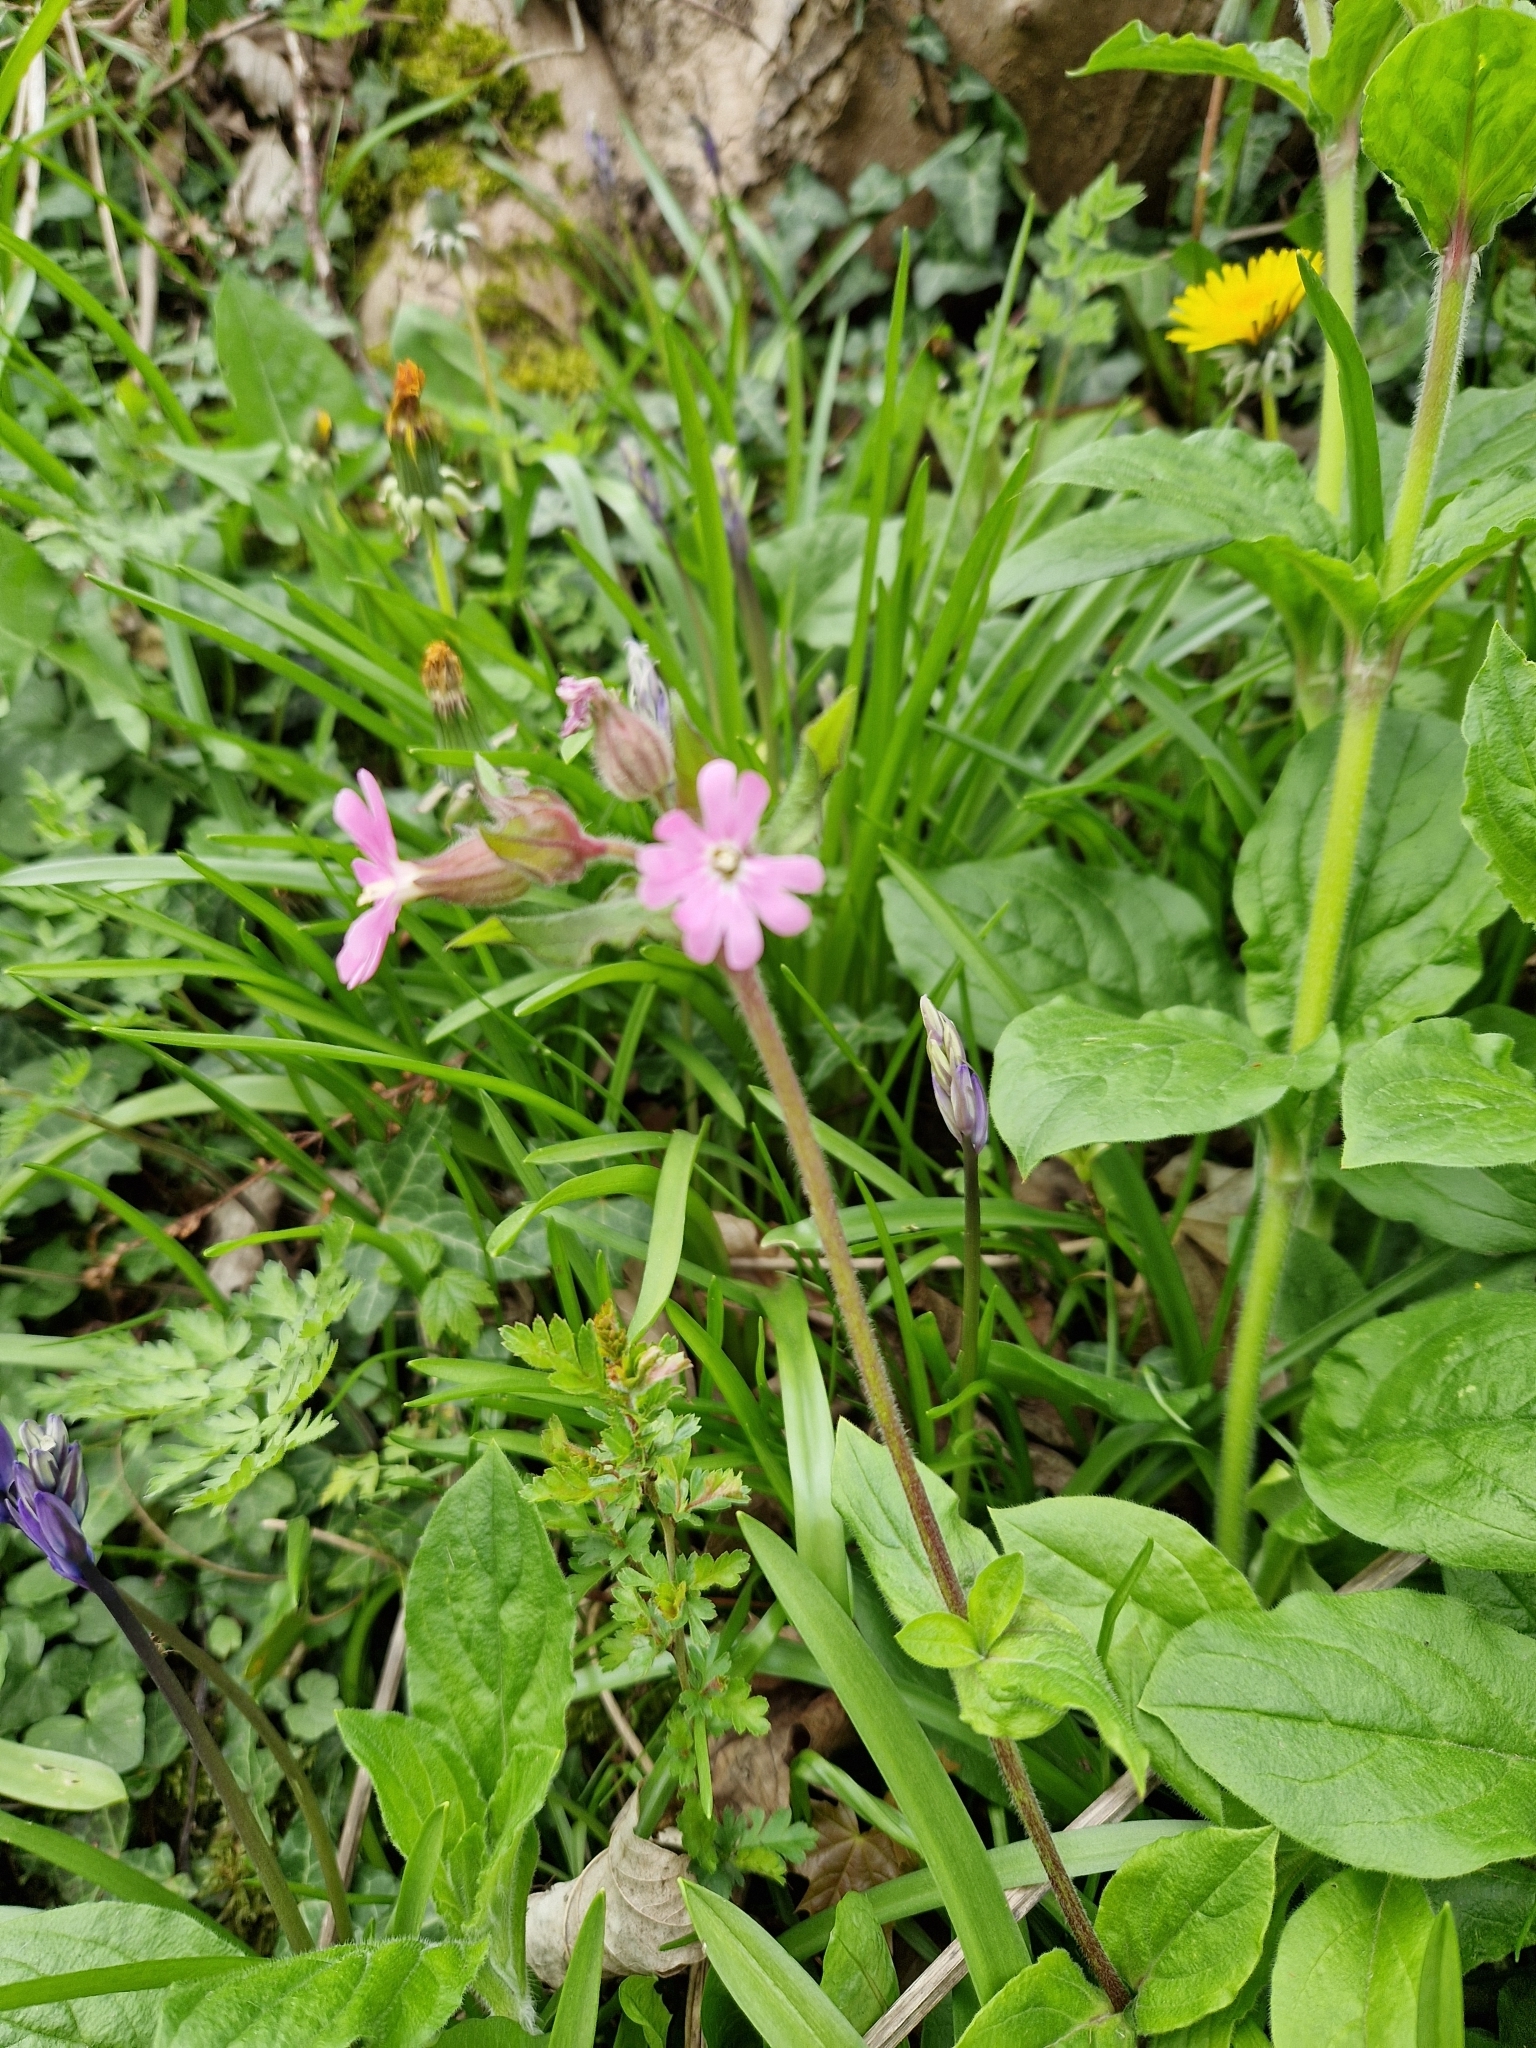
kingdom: Plantae
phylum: Tracheophyta
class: Magnoliopsida
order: Caryophyllales
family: Caryophyllaceae
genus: Silene
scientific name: Silene dioica
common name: Red campion
